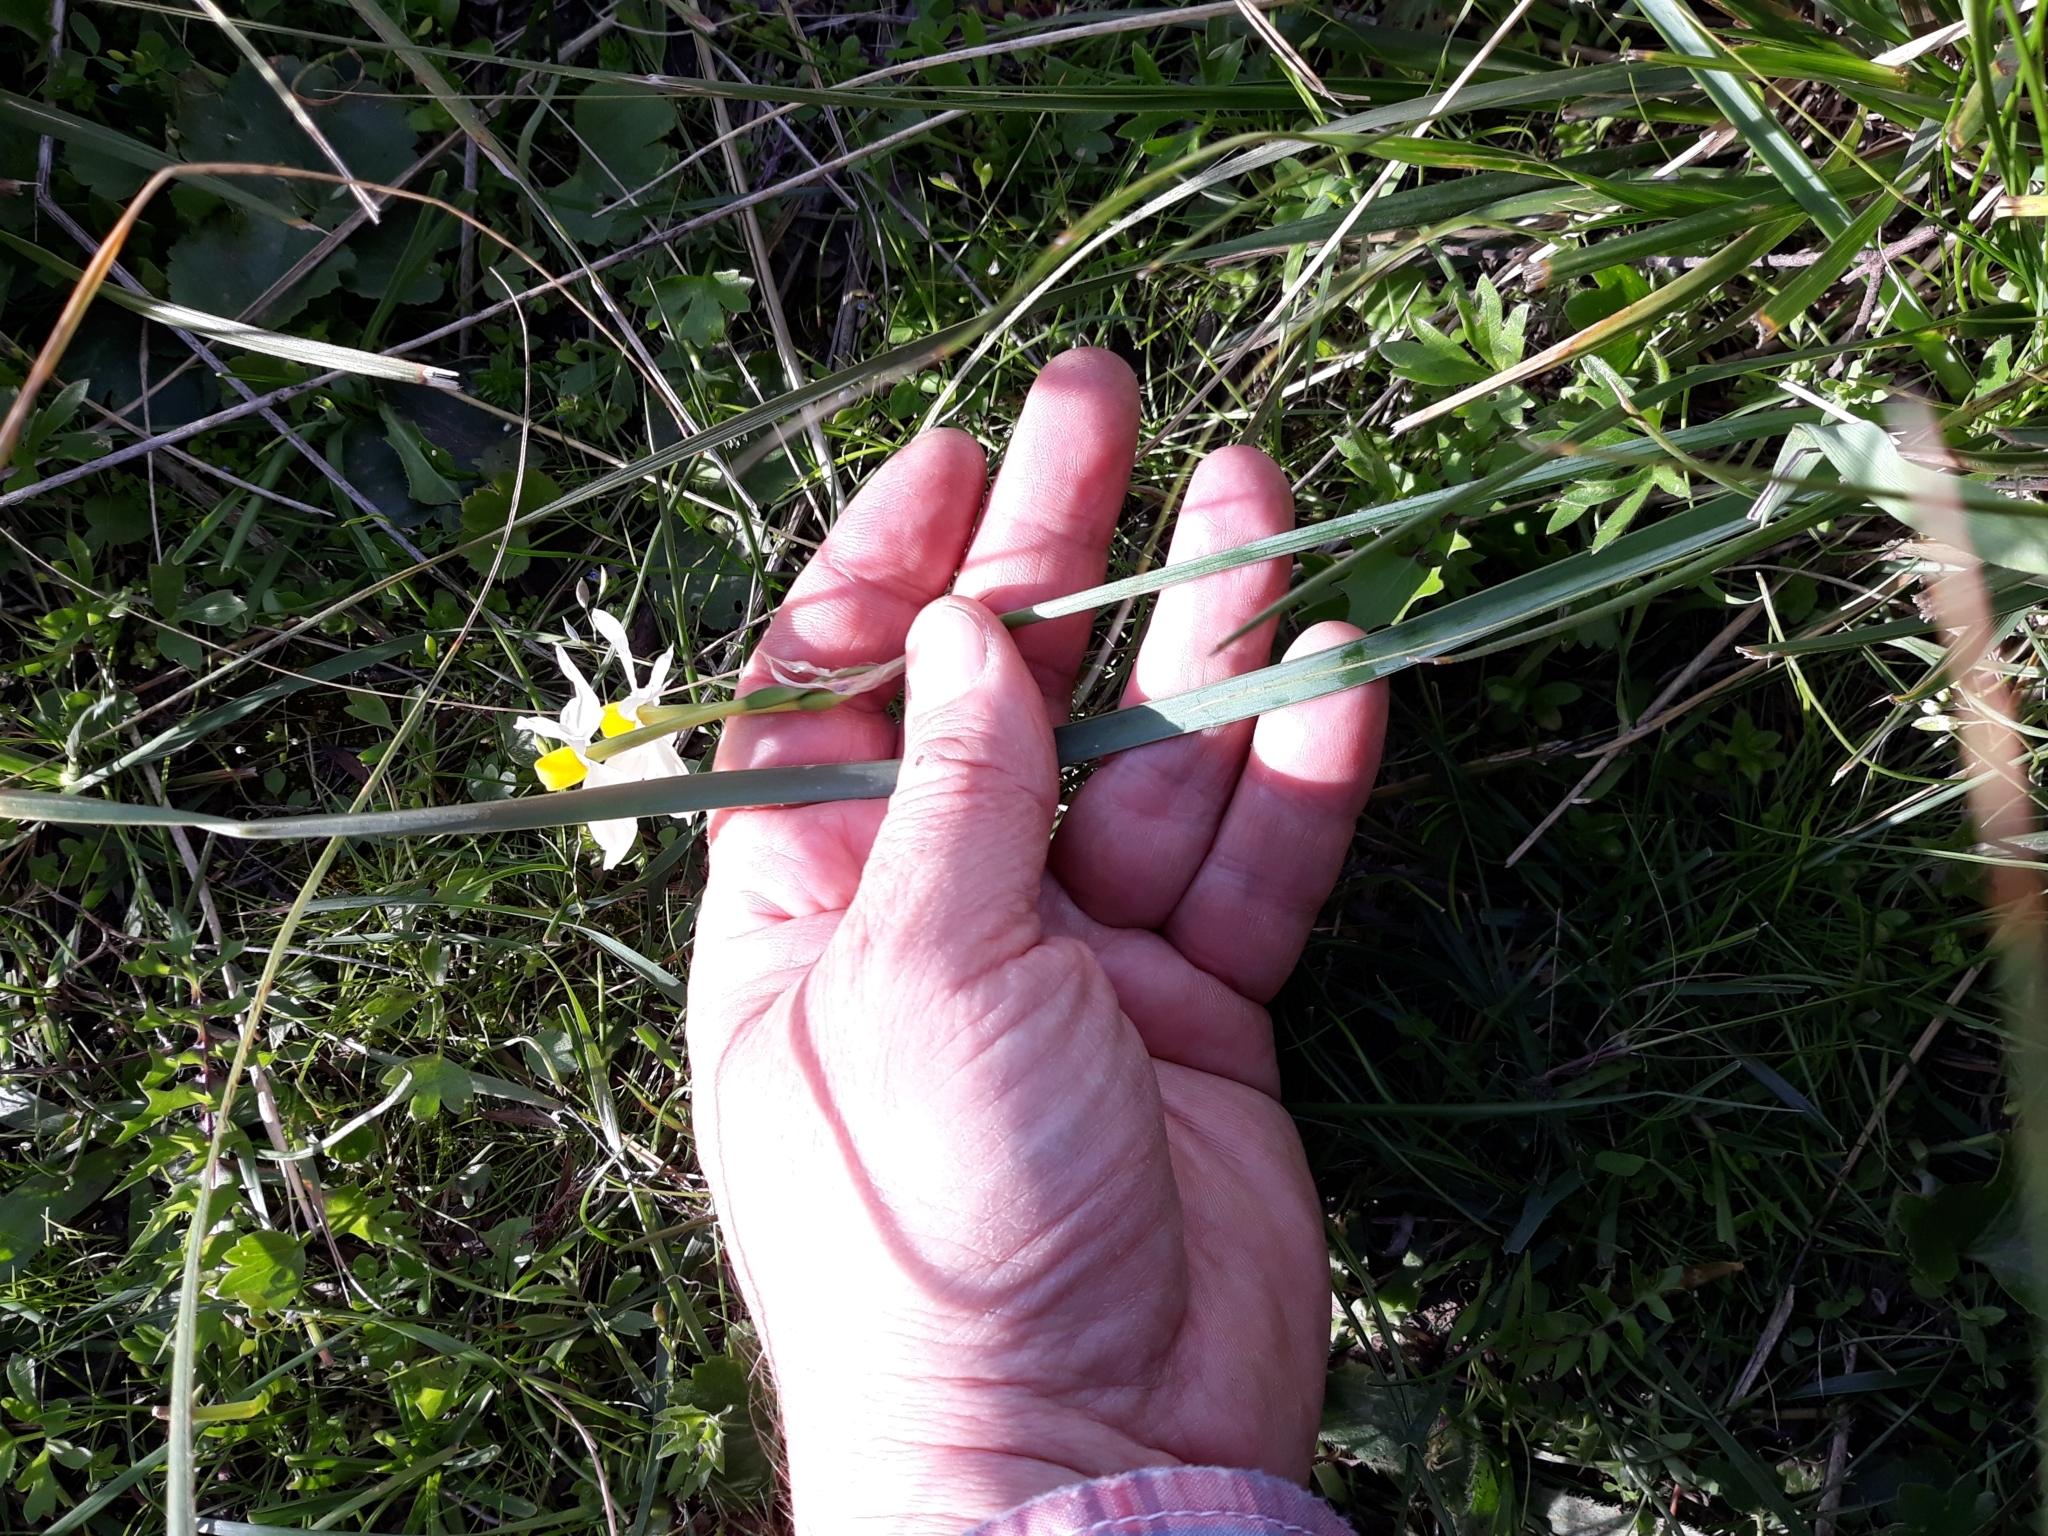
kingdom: Plantae
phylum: Tracheophyta
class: Liliopsida
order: Asparagales
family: Amaryllidaceae
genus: Narcissus
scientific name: Narcissus tazetta
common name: Bunch-flowered daffodil
